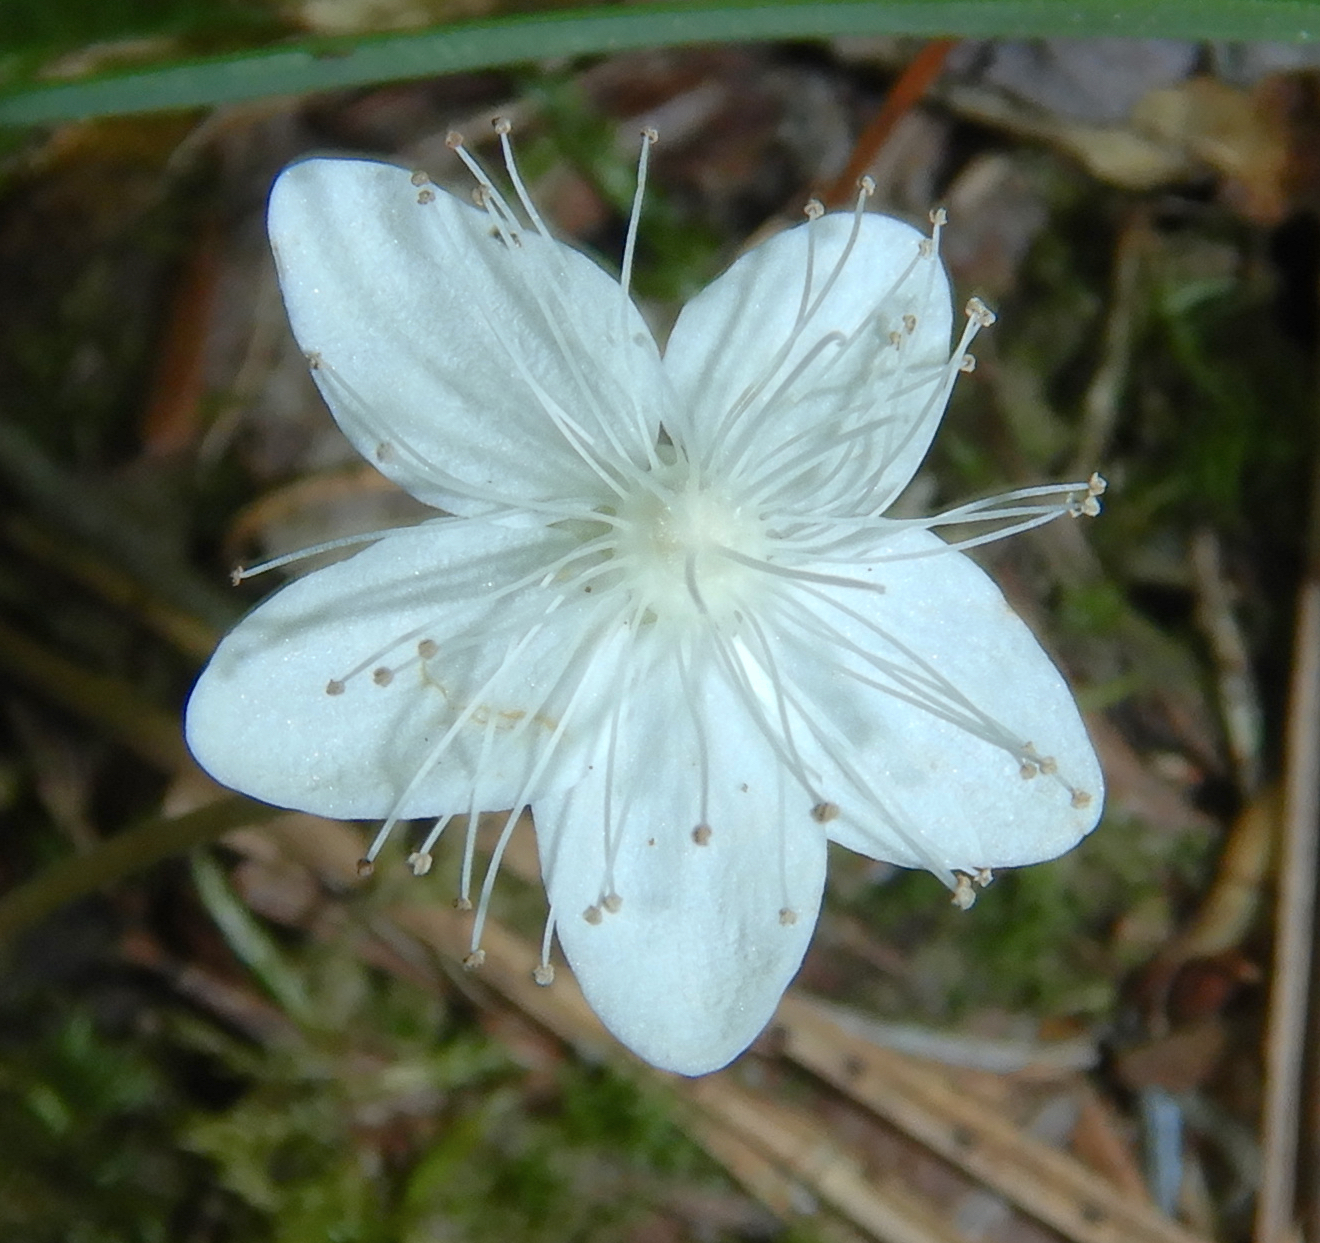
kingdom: Plantae
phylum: Tracheophyta
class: Magnoliopsida
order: Rosales
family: Rosaceae
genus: Dalibarda
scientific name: Dalibarda repens
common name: Dewdrop
